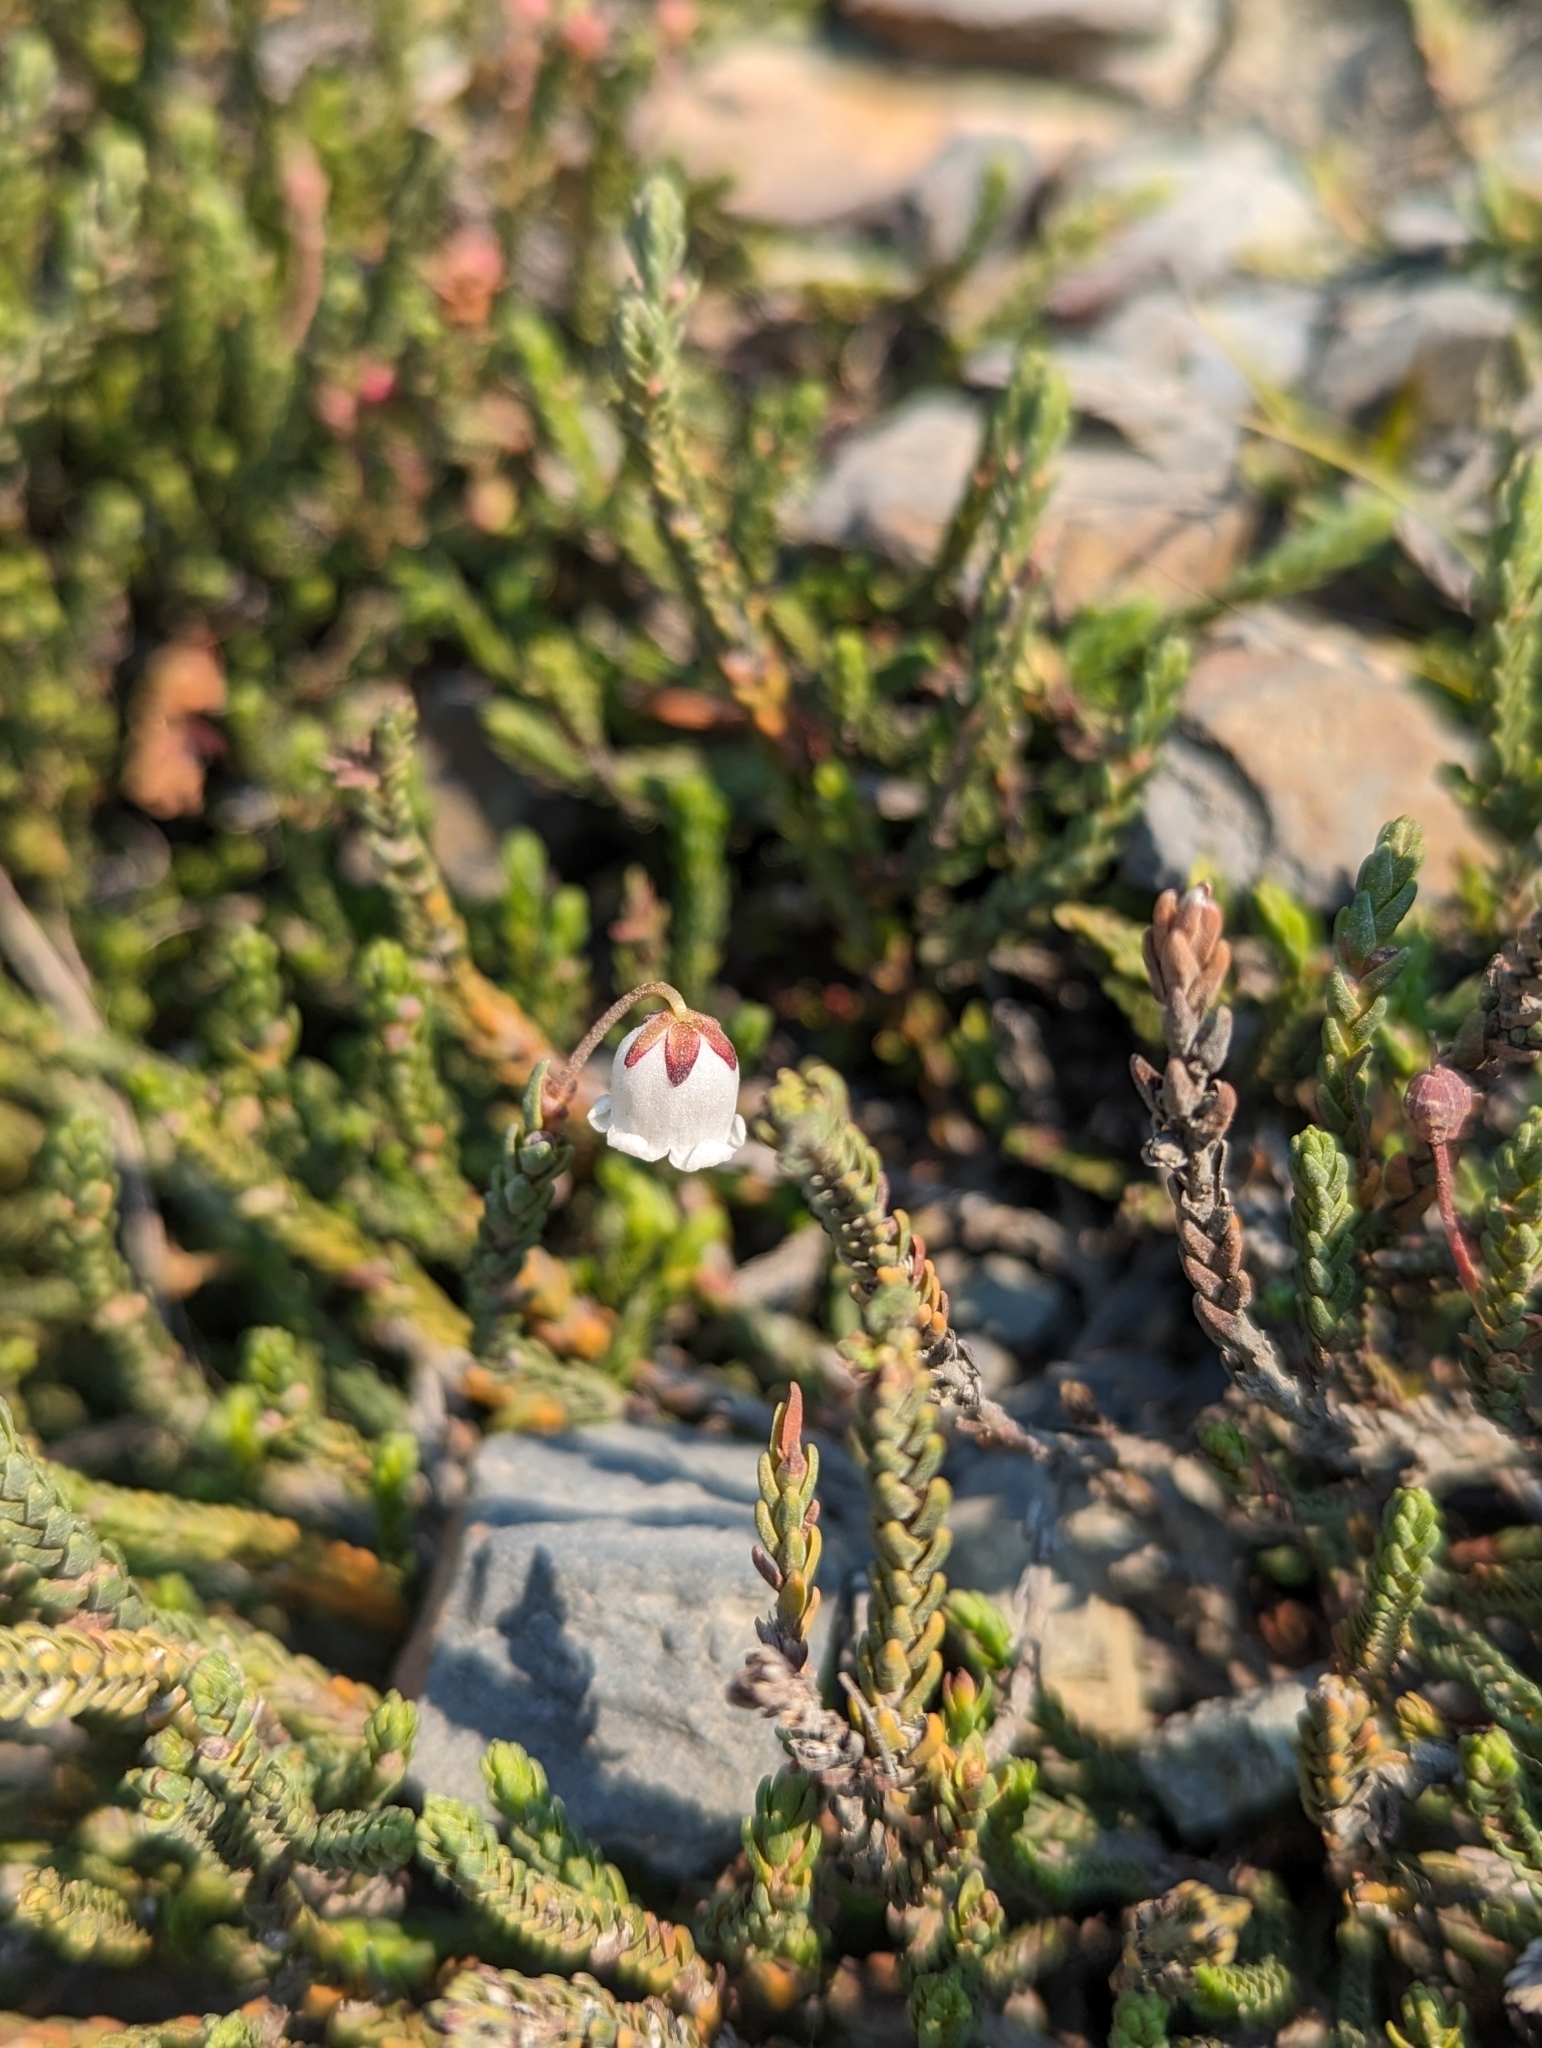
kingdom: Plantae
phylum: Tracheophyta
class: Magnoliopsida
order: Ericales
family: Ericaceae
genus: Cassiope
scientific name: Cassiope mertensiana
